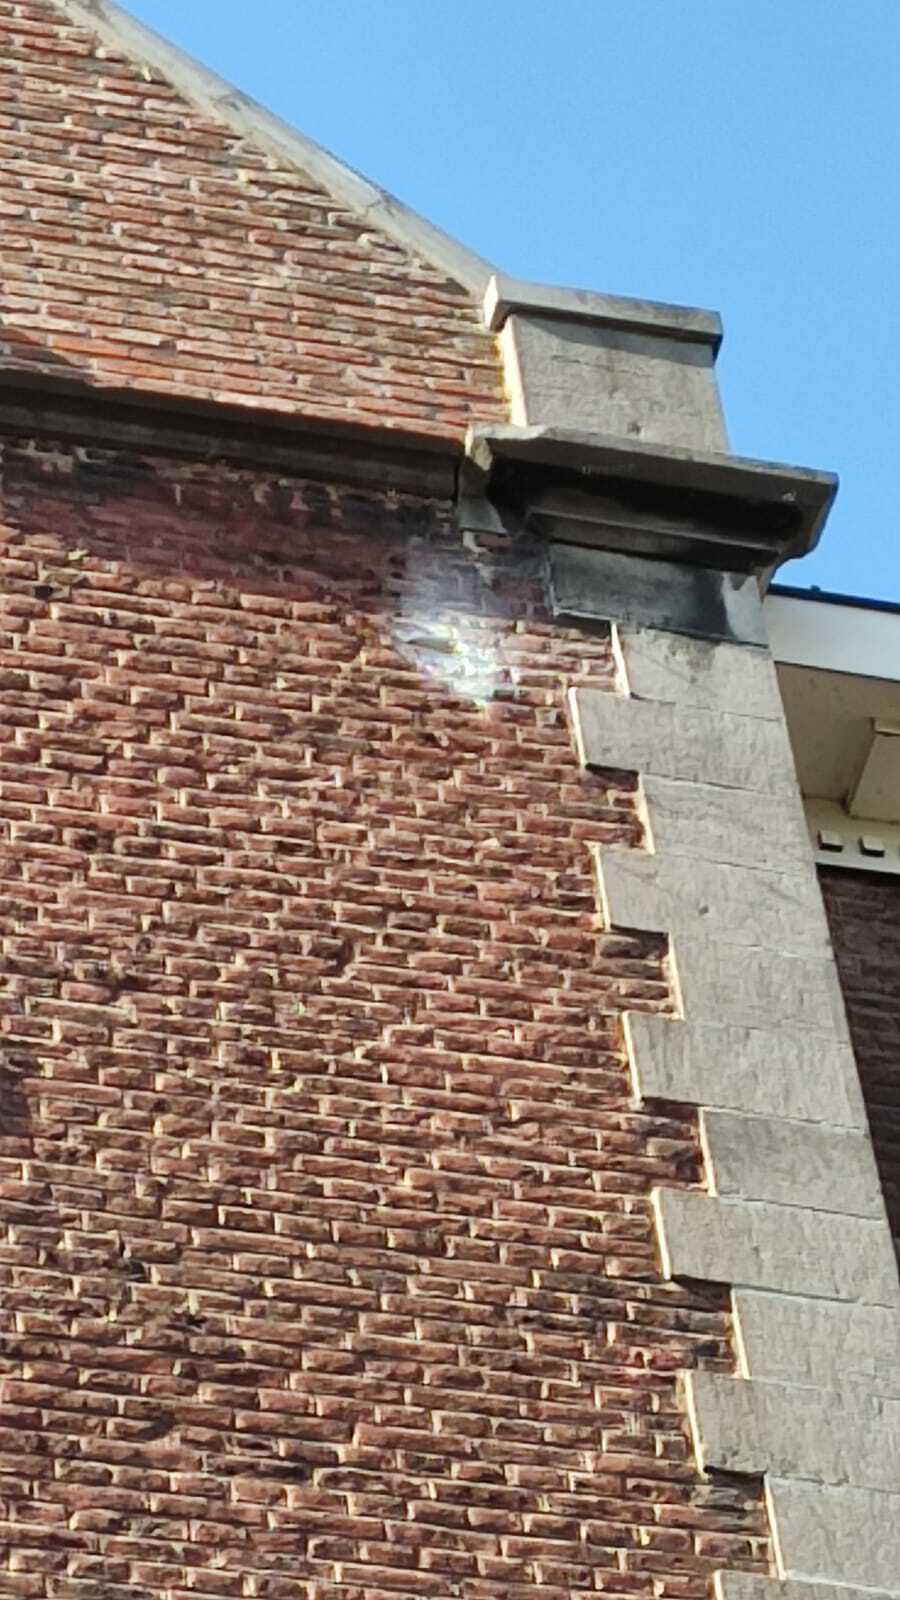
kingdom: Animalia
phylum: Arthropoda
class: Insecta
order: Hymenoptera
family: Vespidae
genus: Vespa
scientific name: Vespa velutina
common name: Asian hornet
